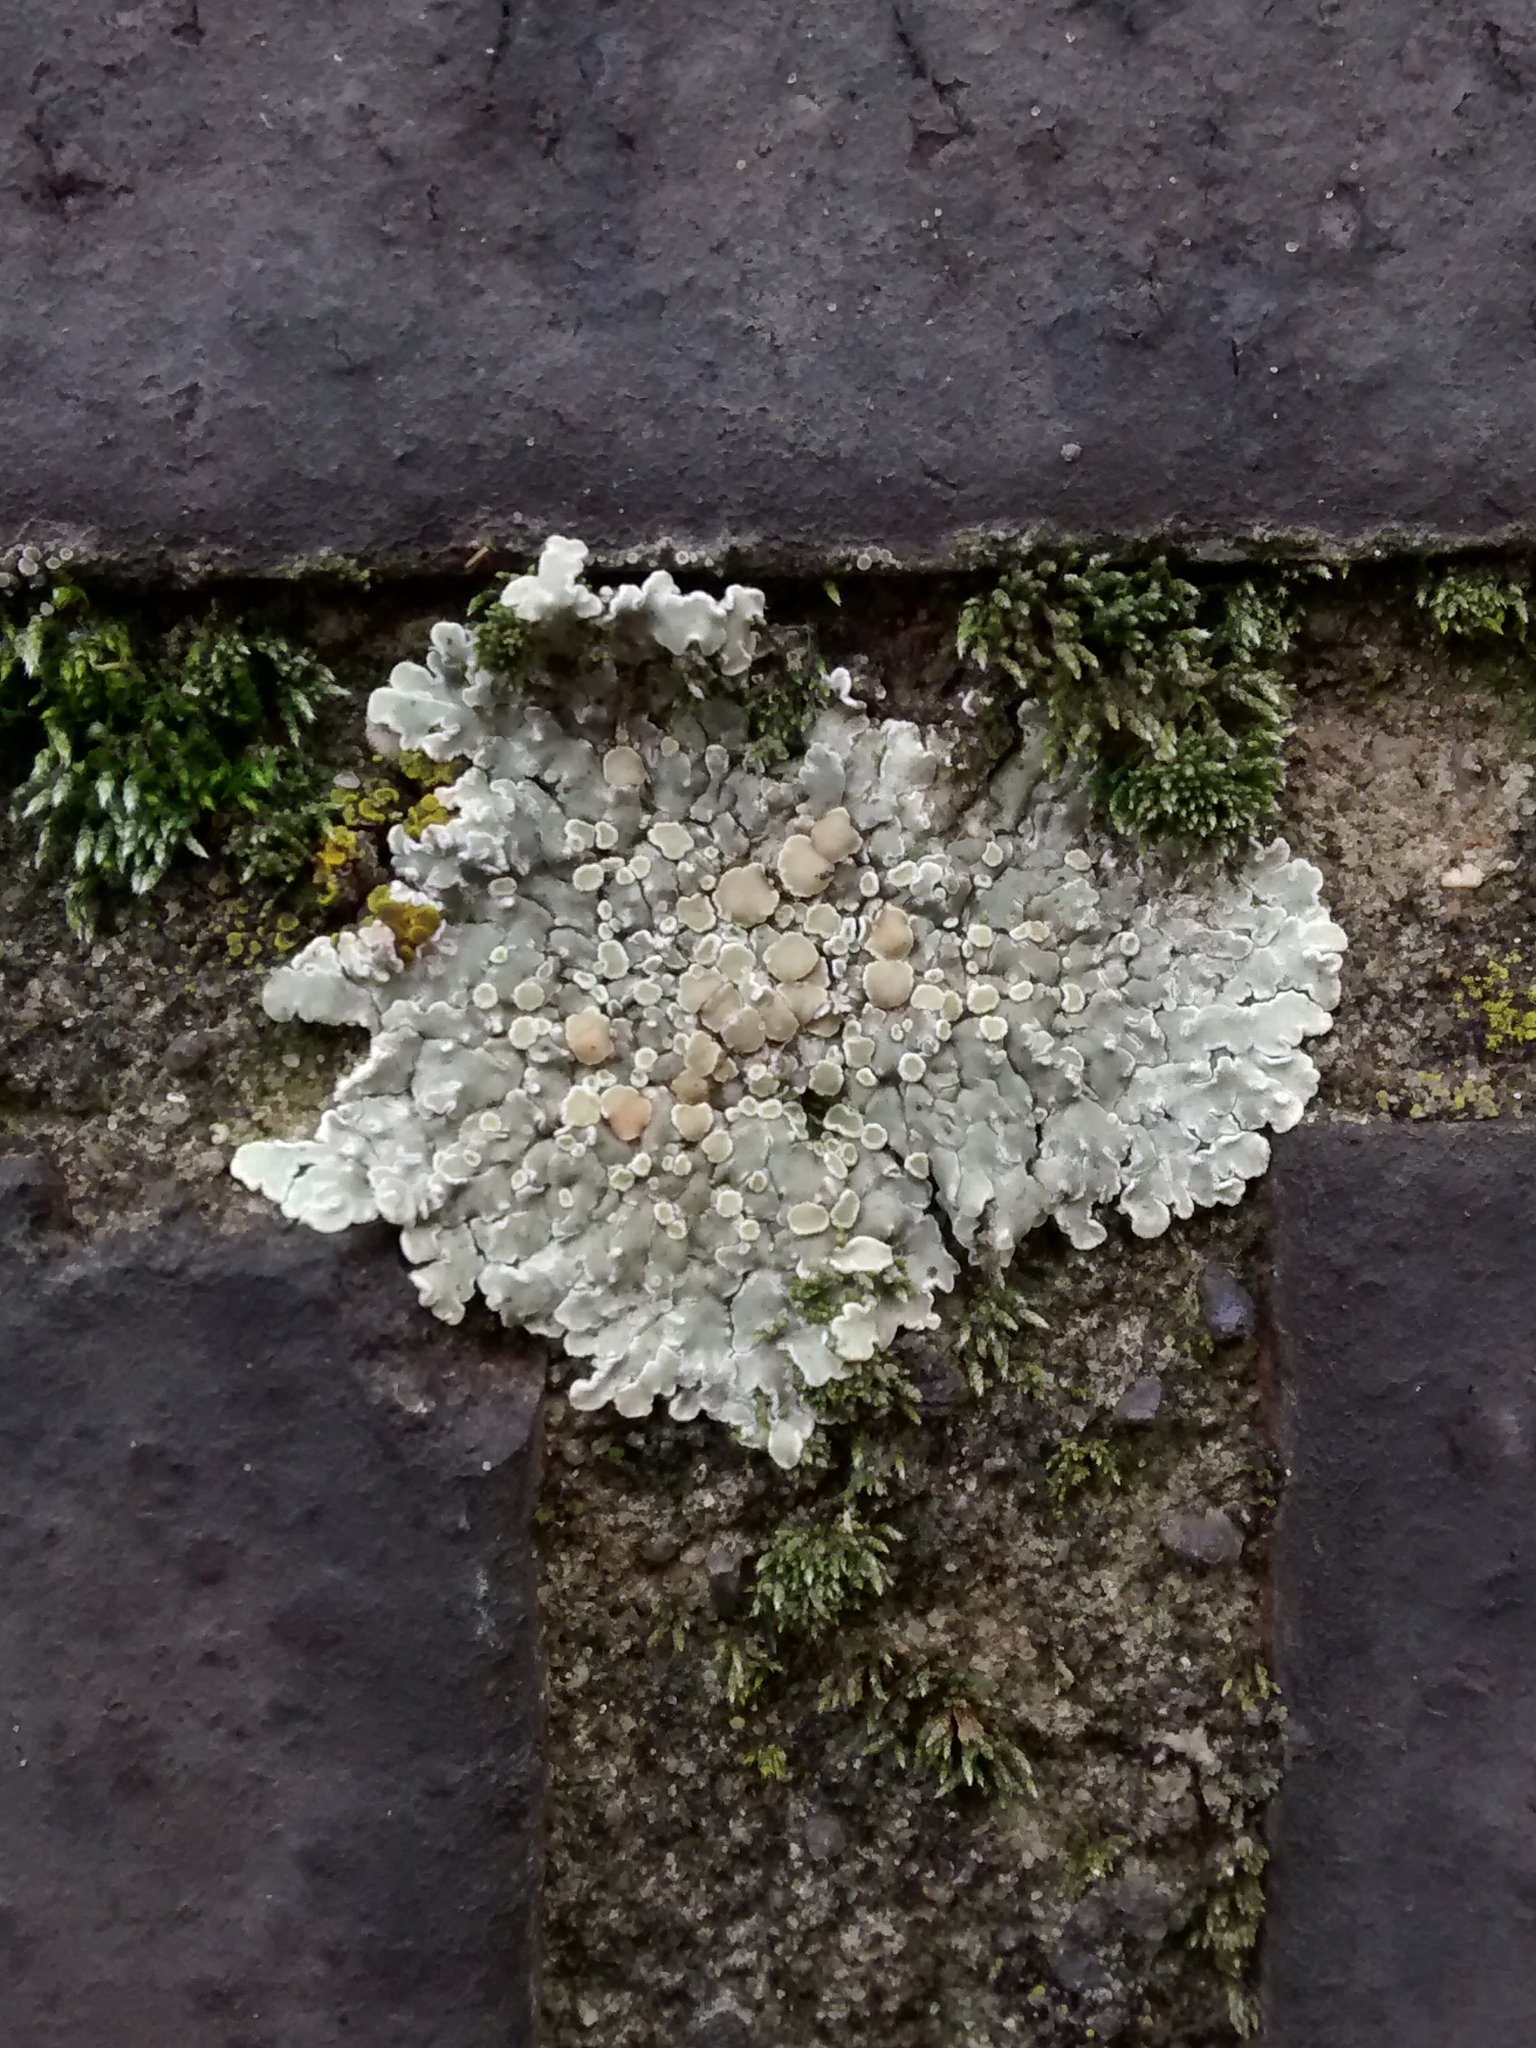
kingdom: Fungi
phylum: Ascomycota
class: Lecanoromycetes
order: Lecanorales
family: Lecanoraceae
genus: Protoparmeliopsis
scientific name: Protoparmeliopsis muralis
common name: Stonewall rim lichen
